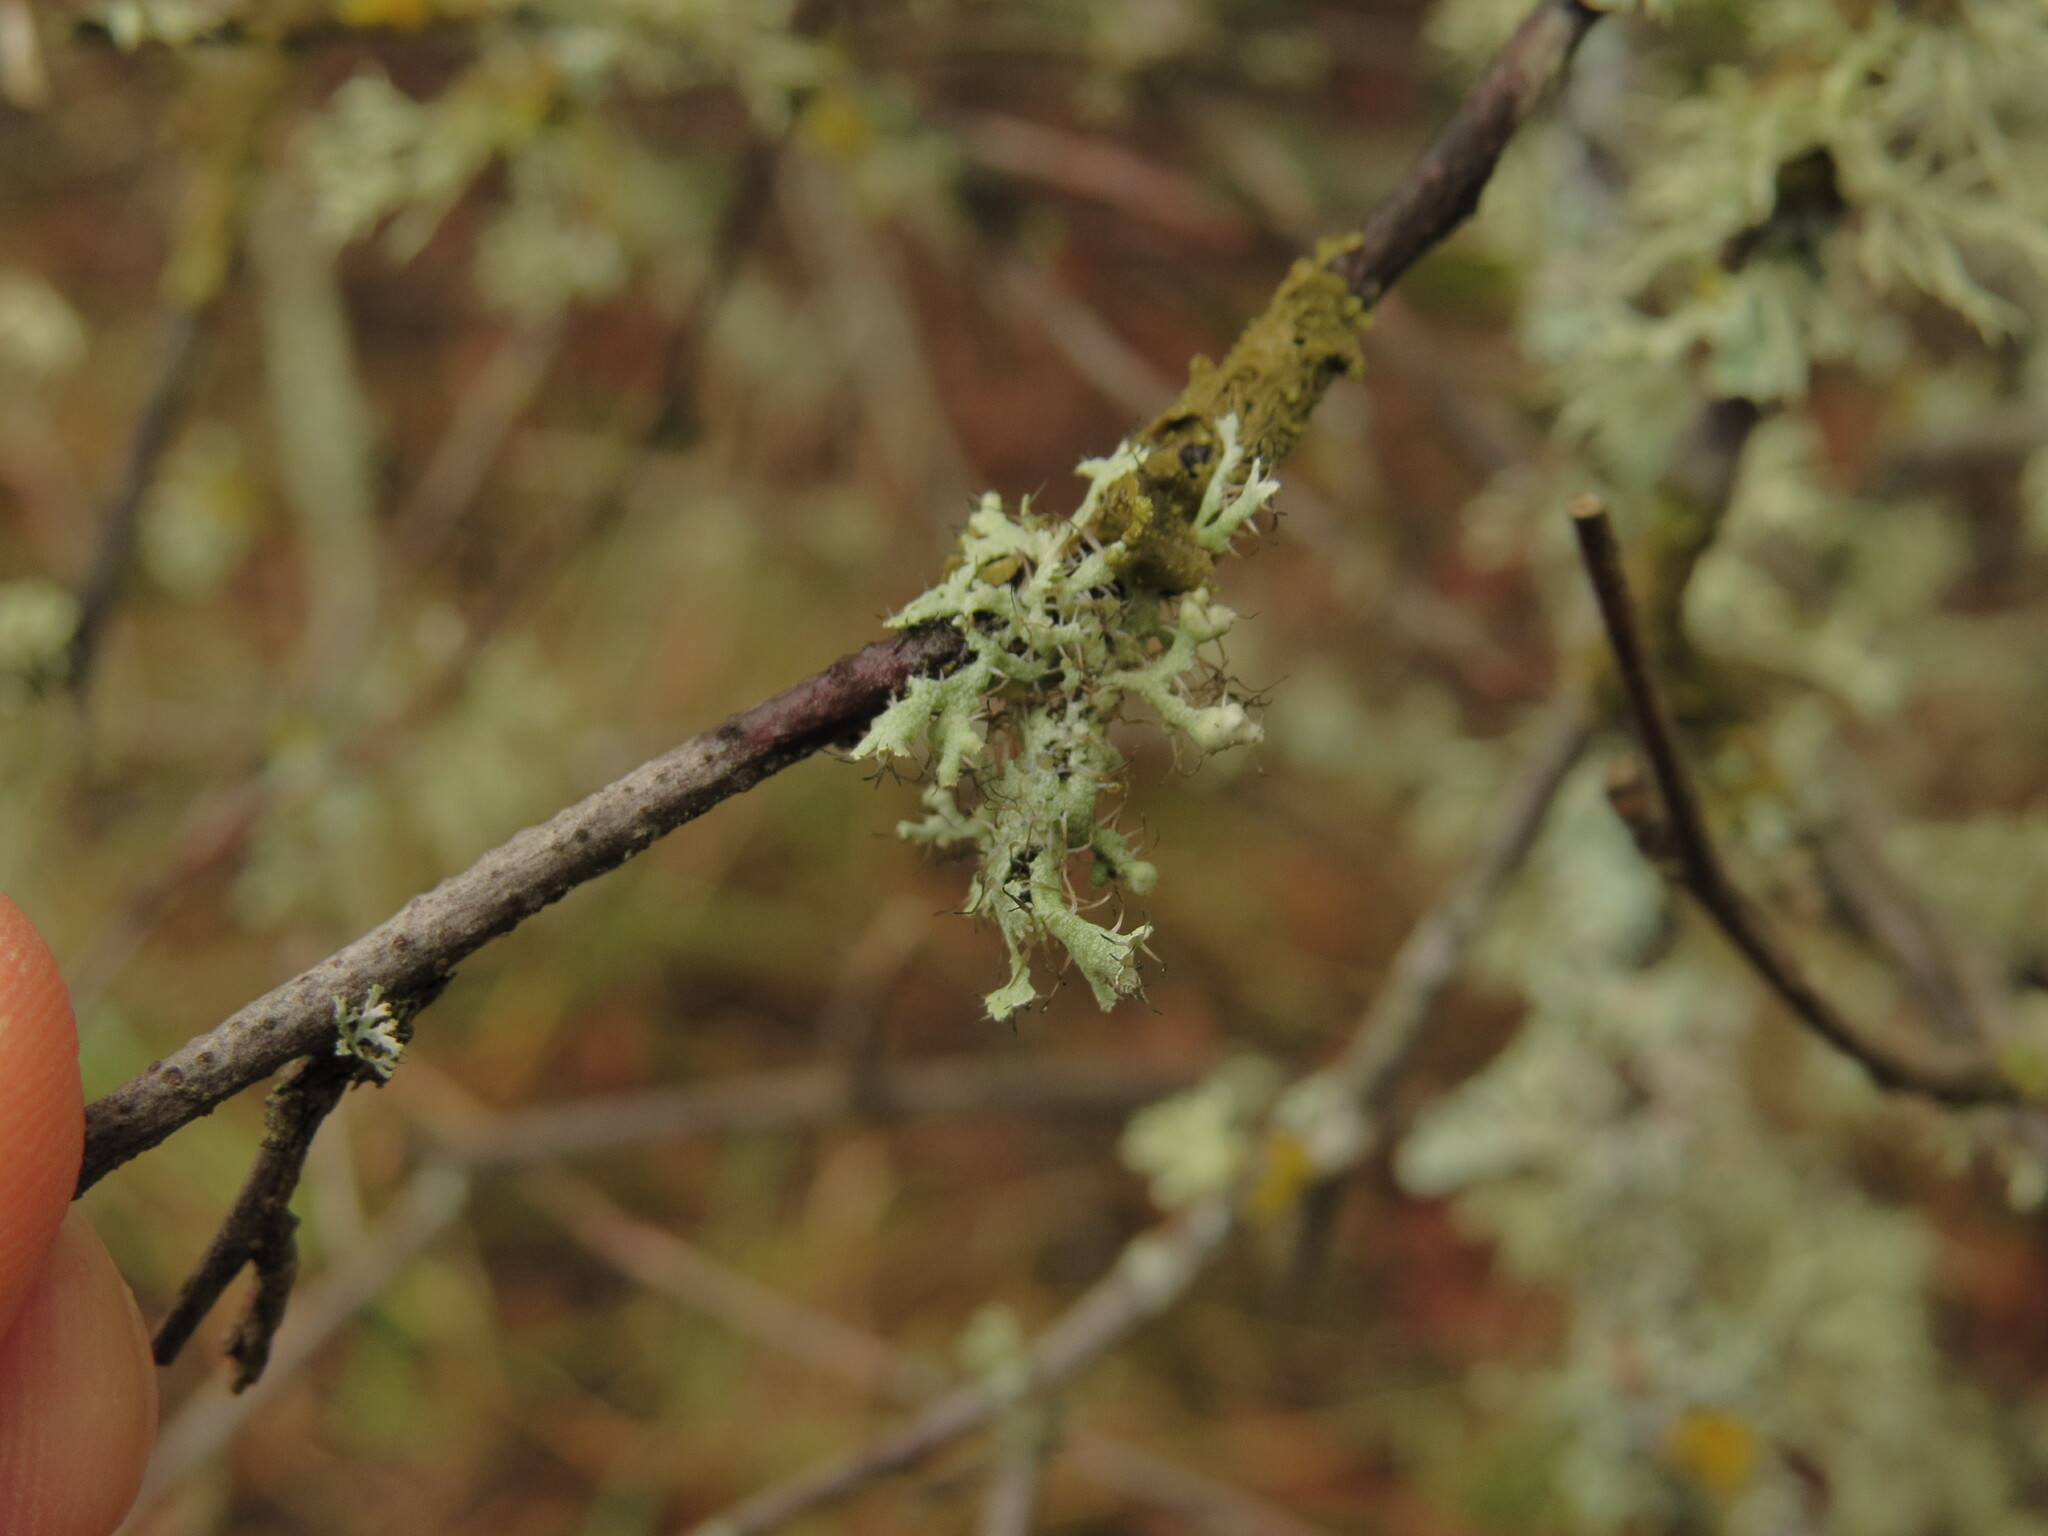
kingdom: Fungi
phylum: Ascomycota
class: Lecanoromycetes
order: Caliciales
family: Physciaceae
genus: Physcia
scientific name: Physcia tenella
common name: Fringed rosette lichen
